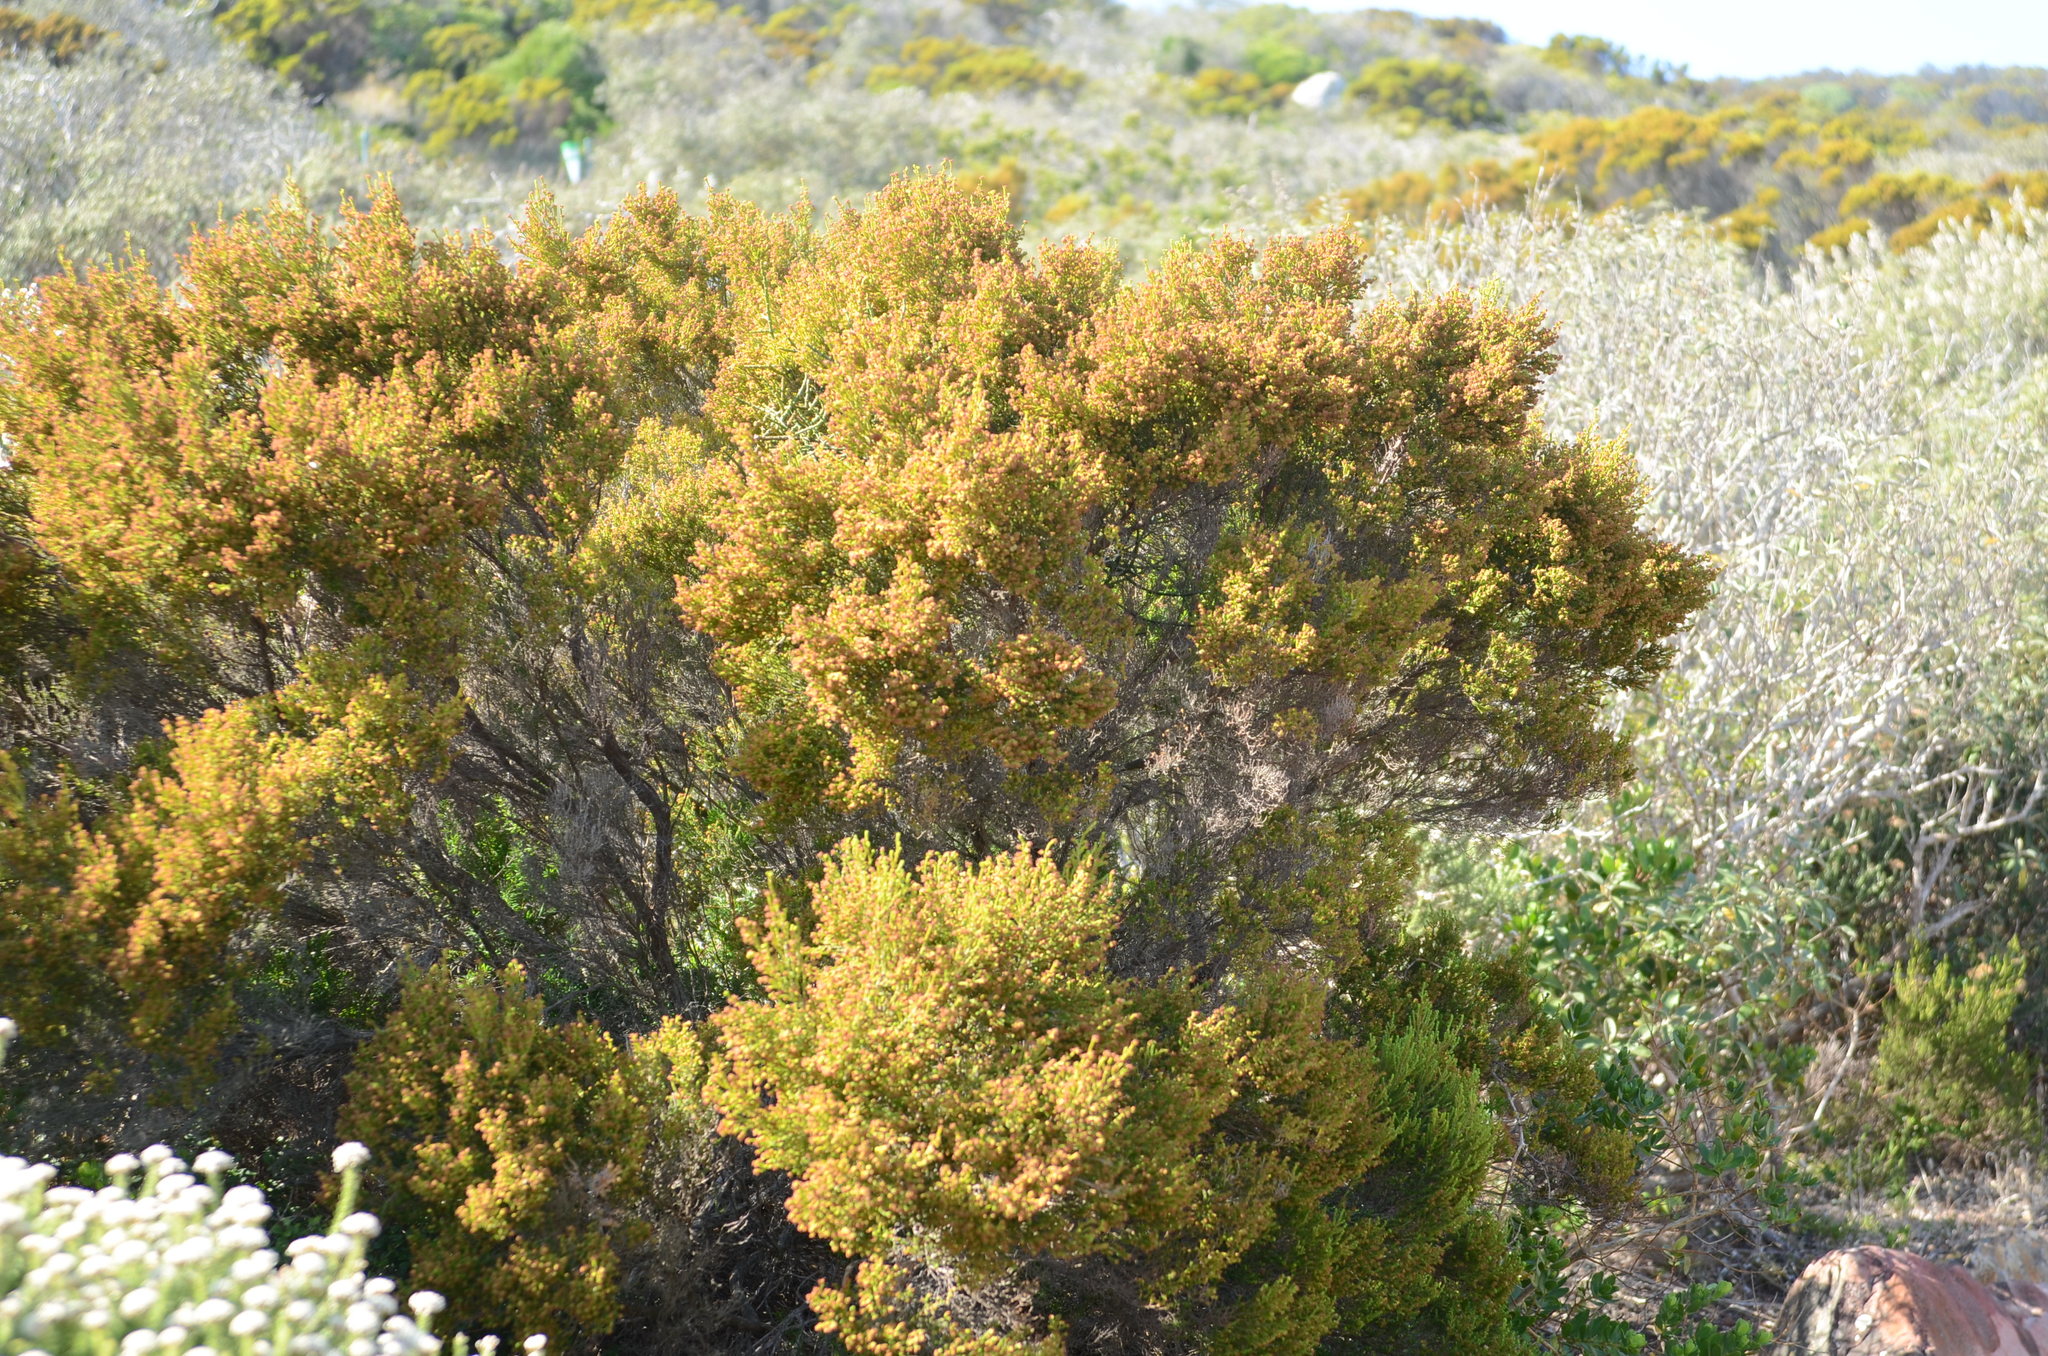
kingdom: Plantae
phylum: Tracheophyta
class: Magnoliopsida
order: Ericales
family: Ericaceae
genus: Erica
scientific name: Erica tristis
